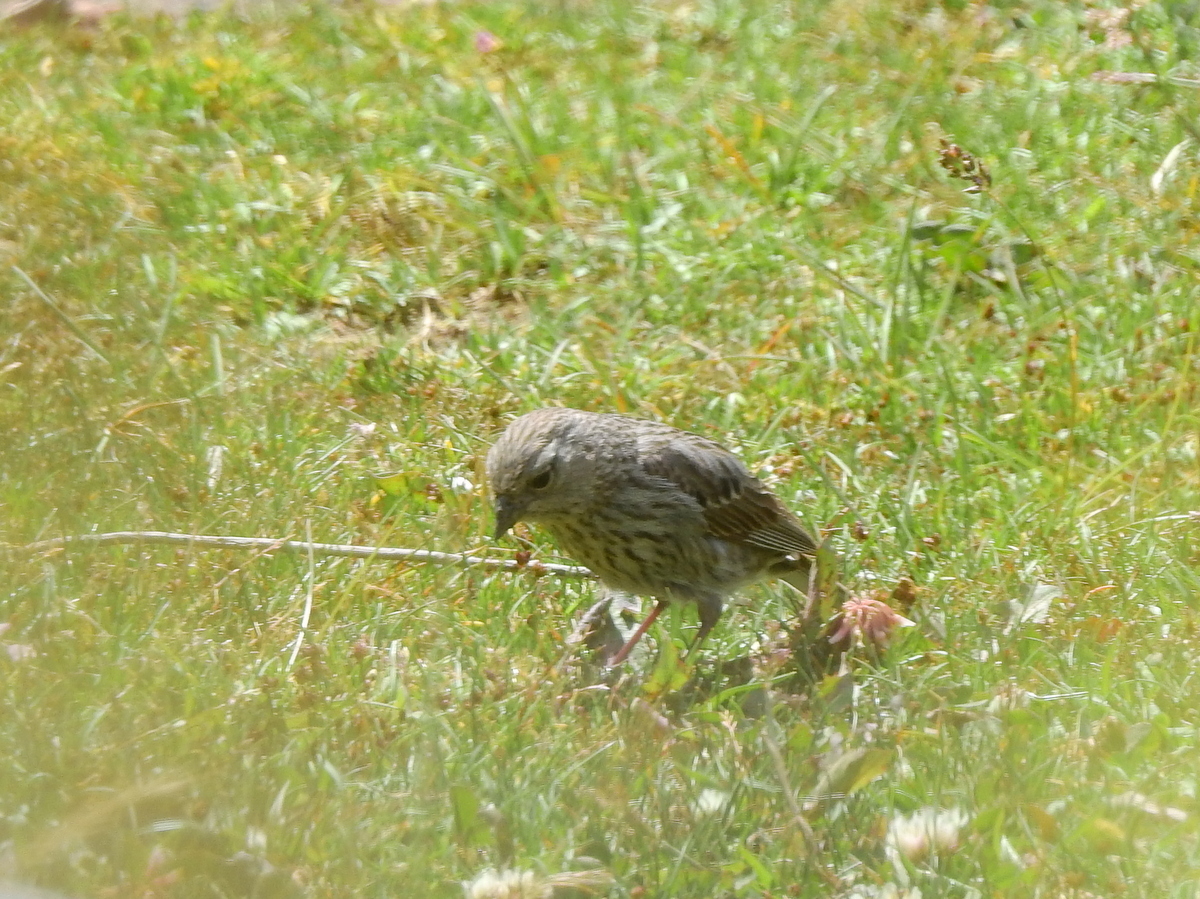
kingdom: Animalia
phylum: Chordata
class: Aves
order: Passeriformes
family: Thraupidae
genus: Geospizopsis
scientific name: Geospizopsis unicolor
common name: Plumbeous sierra-finch
